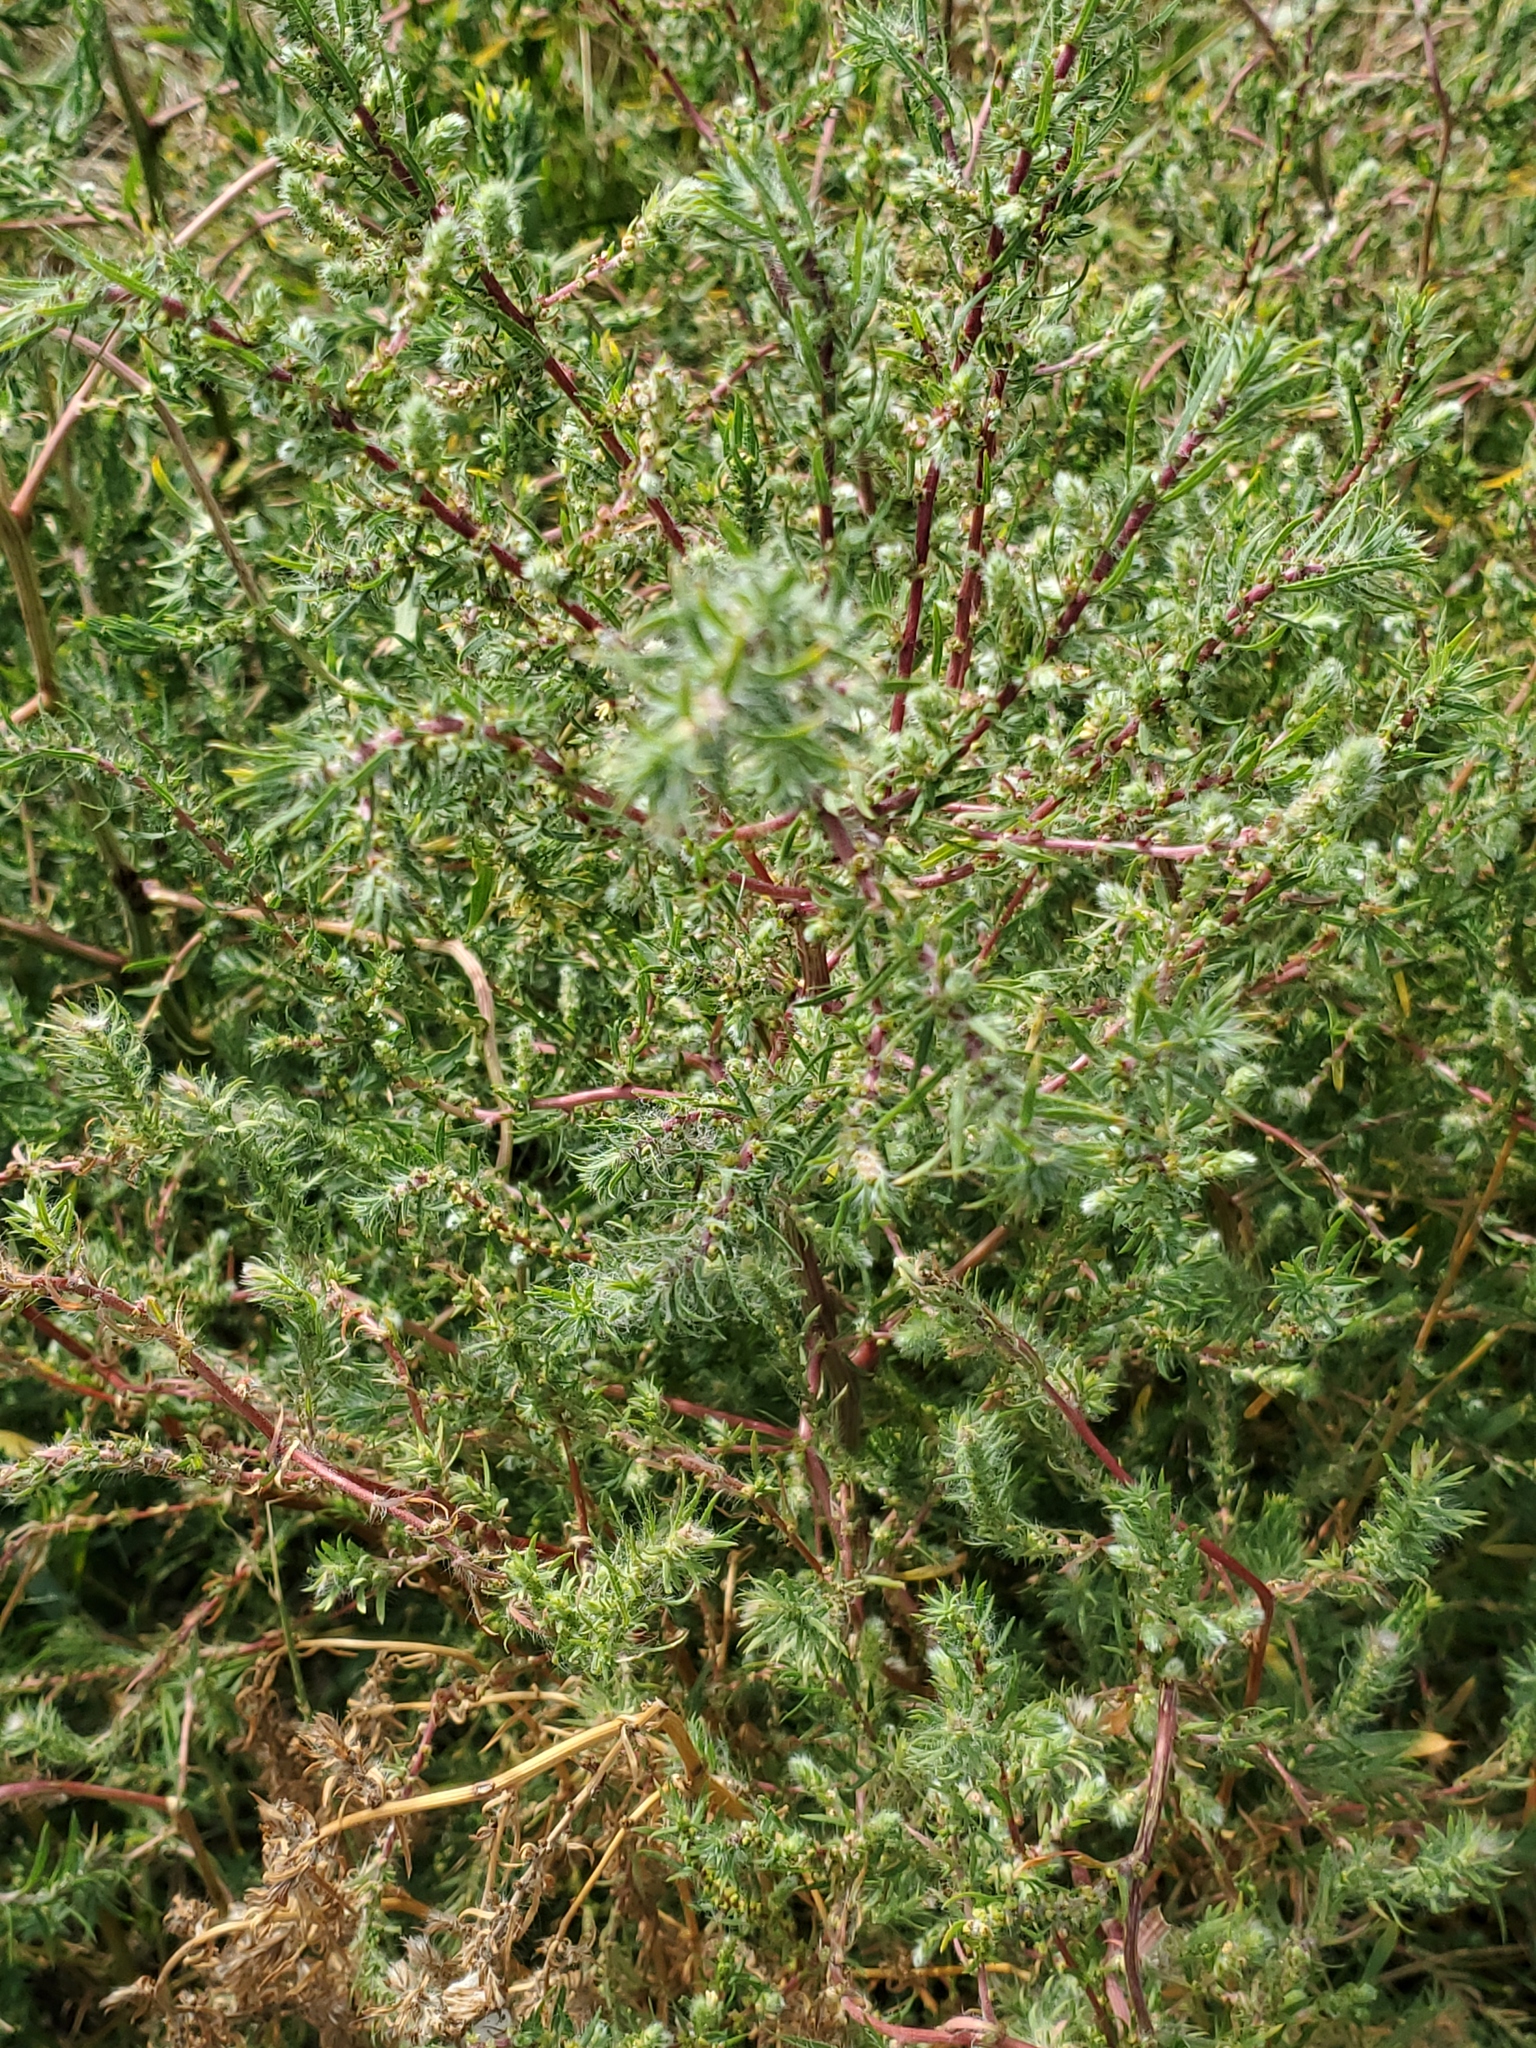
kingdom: Plantae
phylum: Tracheophyta
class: Magnoliopsida
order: Caryophyllales
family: Amaranthaceae
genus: Bassia
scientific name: Bassia scoparia
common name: Belvedere
